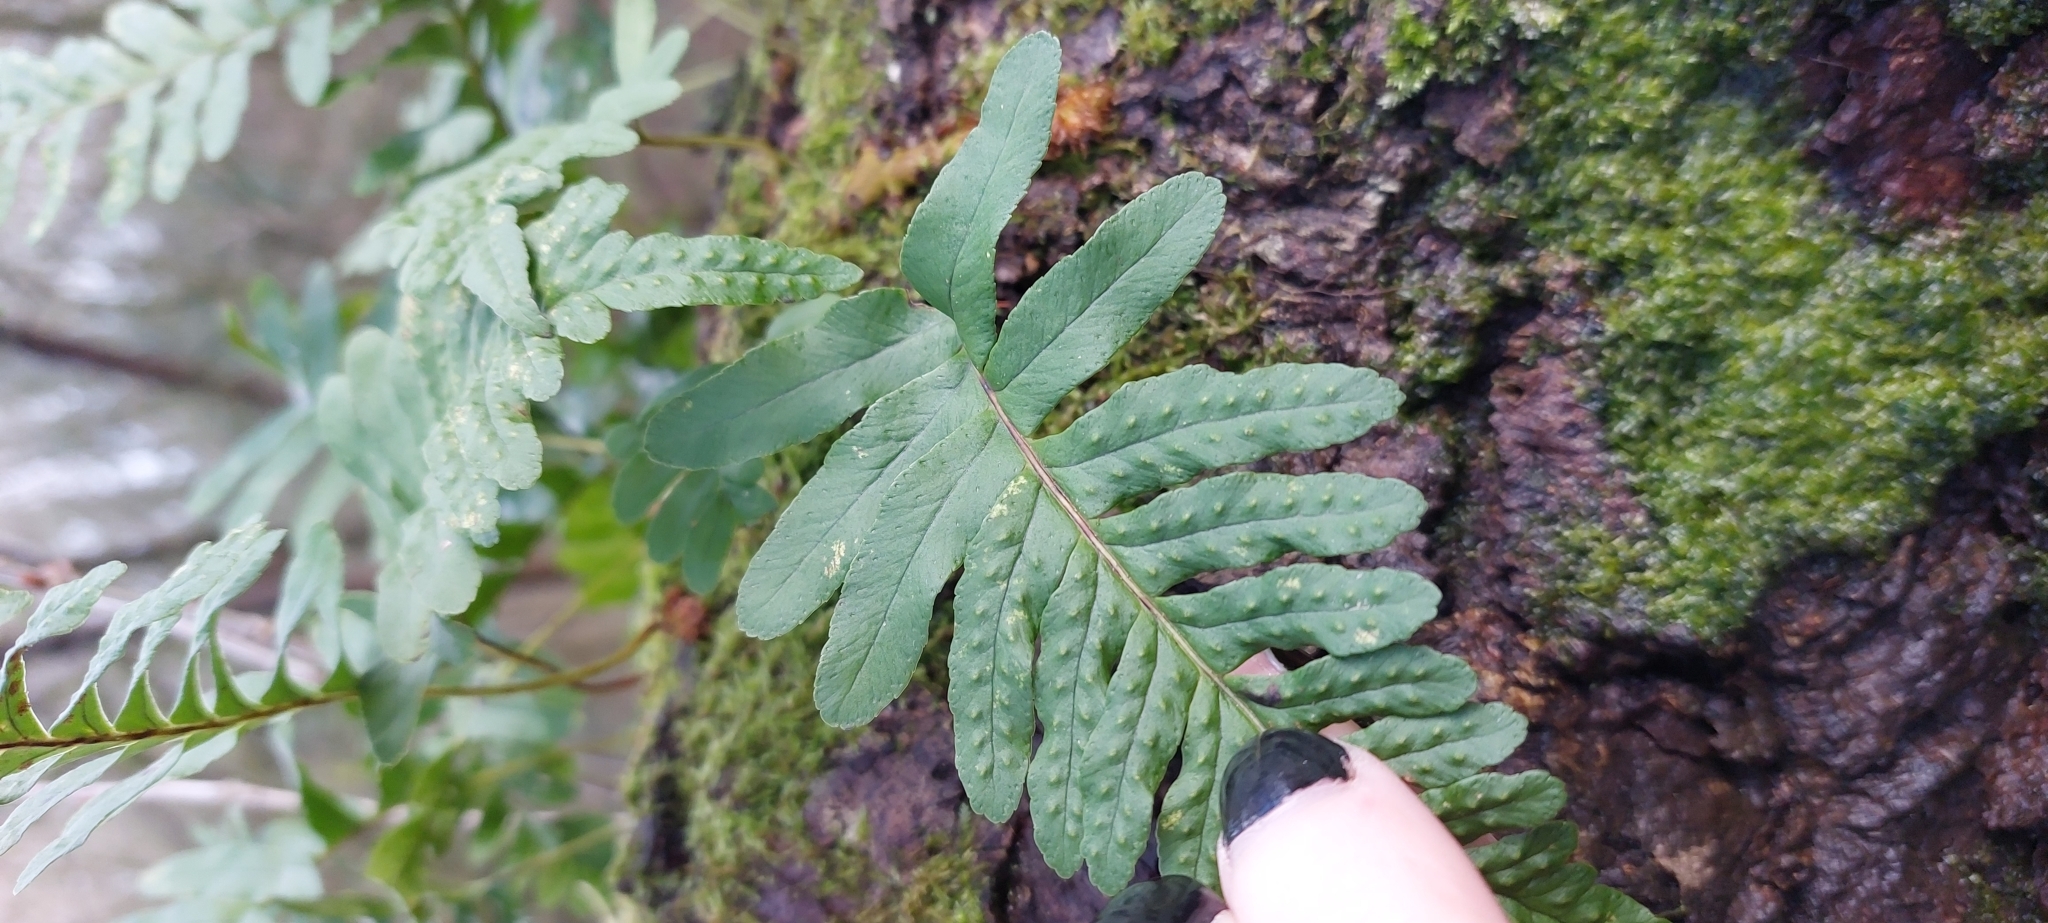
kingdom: Plantae
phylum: Tracheophyta
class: Polypodiopsida
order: Polypodiales
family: Polypodiaceae
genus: Polypodium
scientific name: Polypodium vulgare
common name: Common polypody
